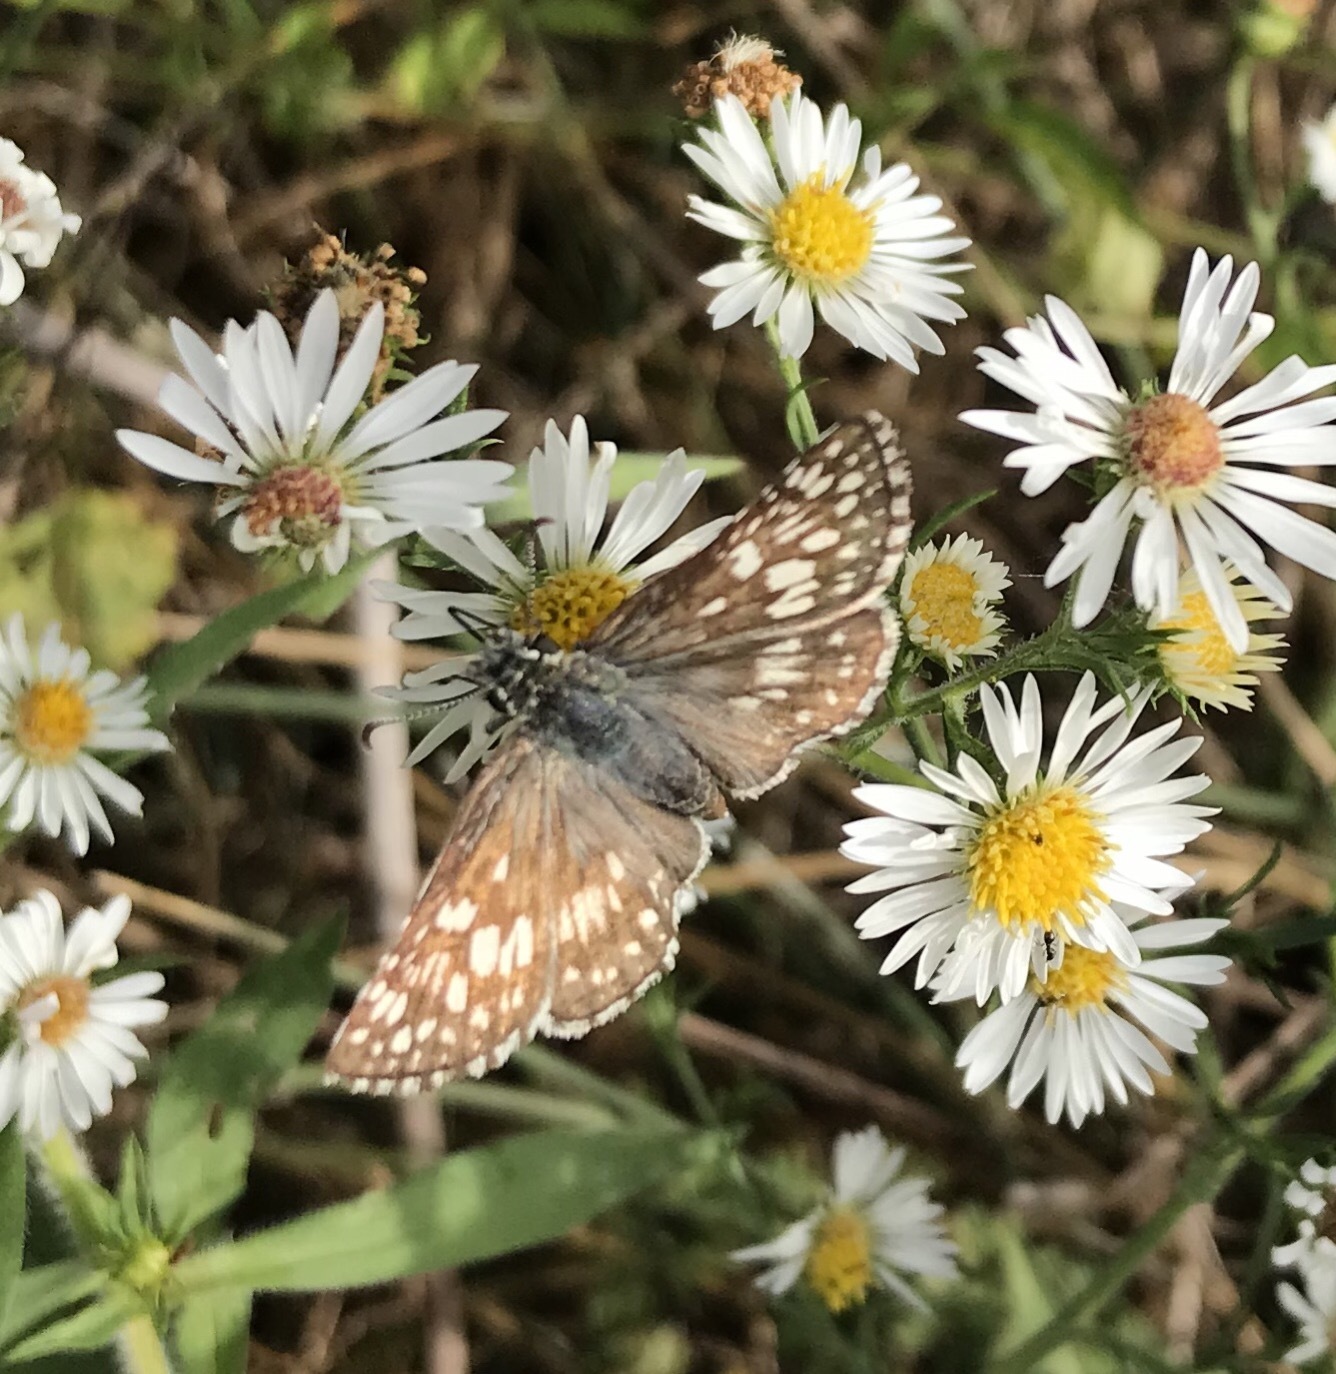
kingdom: Animalia
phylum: Arthropoda
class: Insecta
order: Lepidoptera
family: Hesperiidae
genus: Burnsius
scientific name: Burnsius communis
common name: Common checkered-skipper
